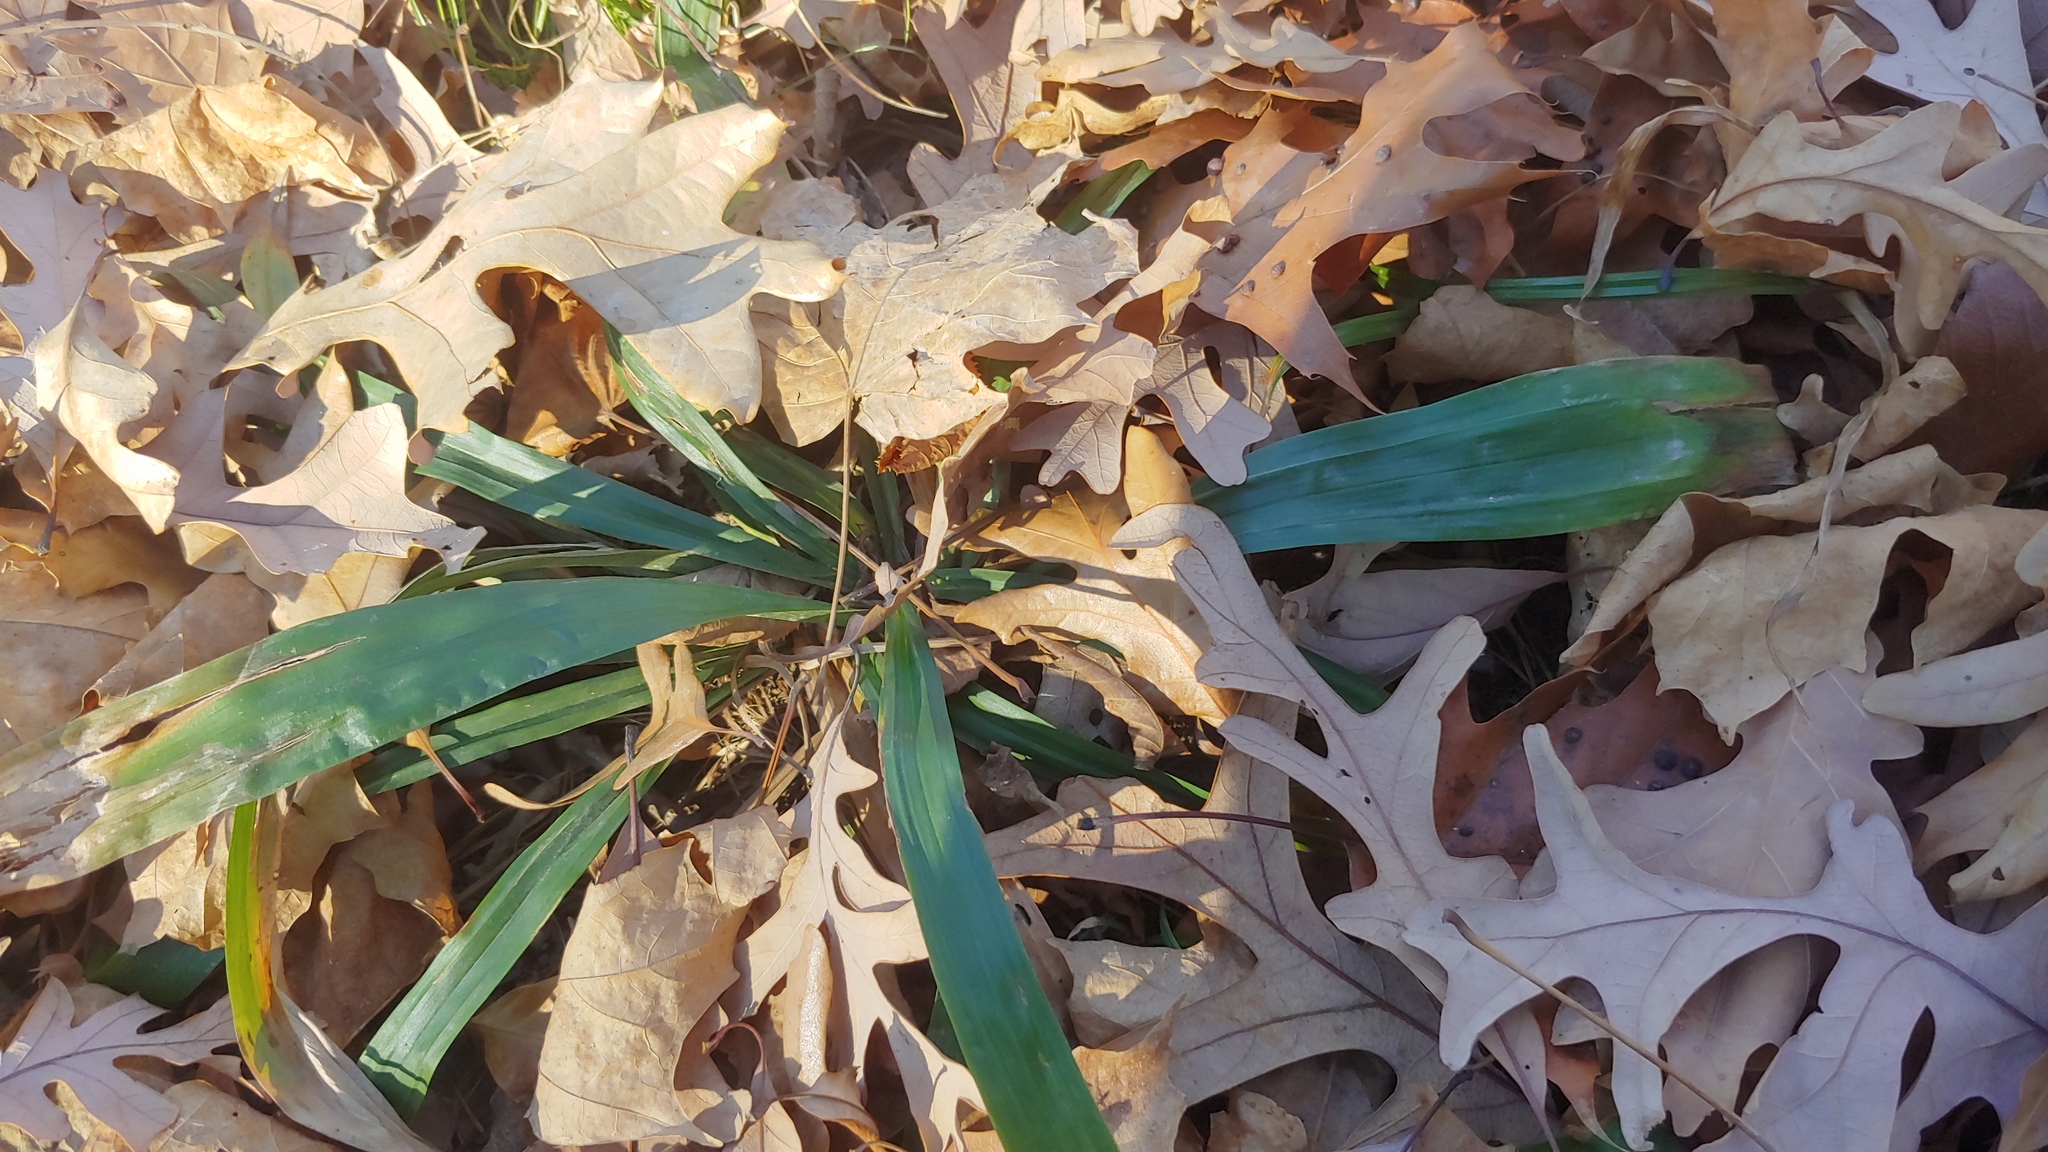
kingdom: Plantae
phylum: Tracheophyta
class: Liliopsida
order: Poales
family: Cyperaceae
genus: Carex
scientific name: Carex albursina
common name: Blunt-scale wood sedge
